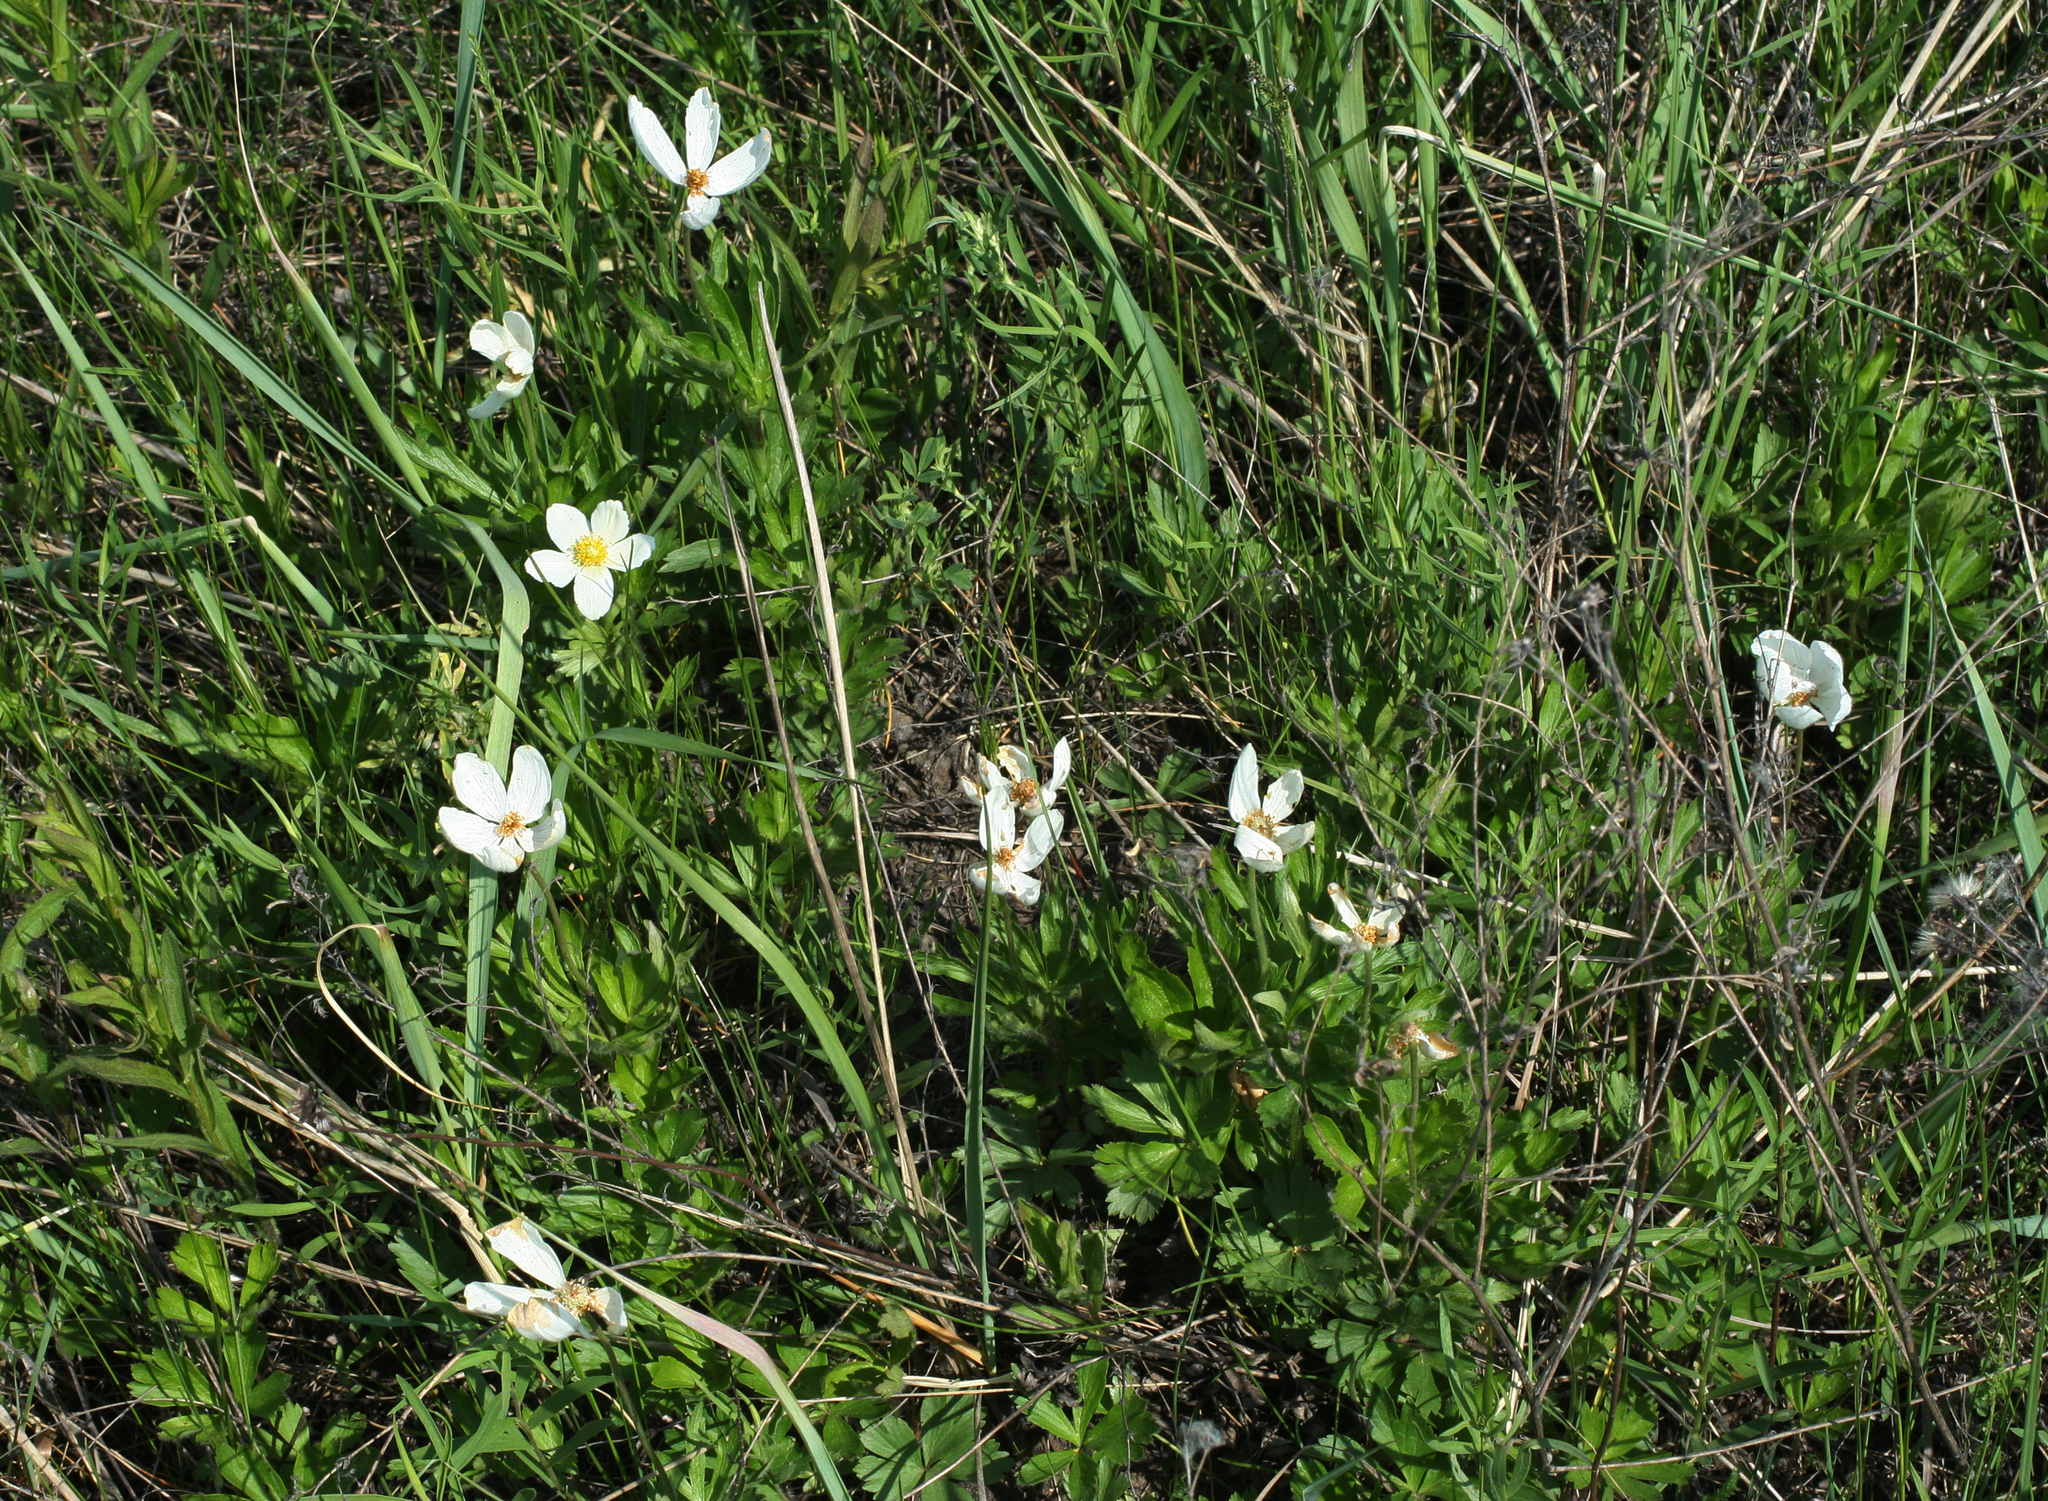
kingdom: Plantae
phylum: Tracheophyta
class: Magnoliopsida
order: Ranunculales
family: Ranunculaceae
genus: Anemone
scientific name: Anemone sylvestris
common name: Snowdrop anemone
